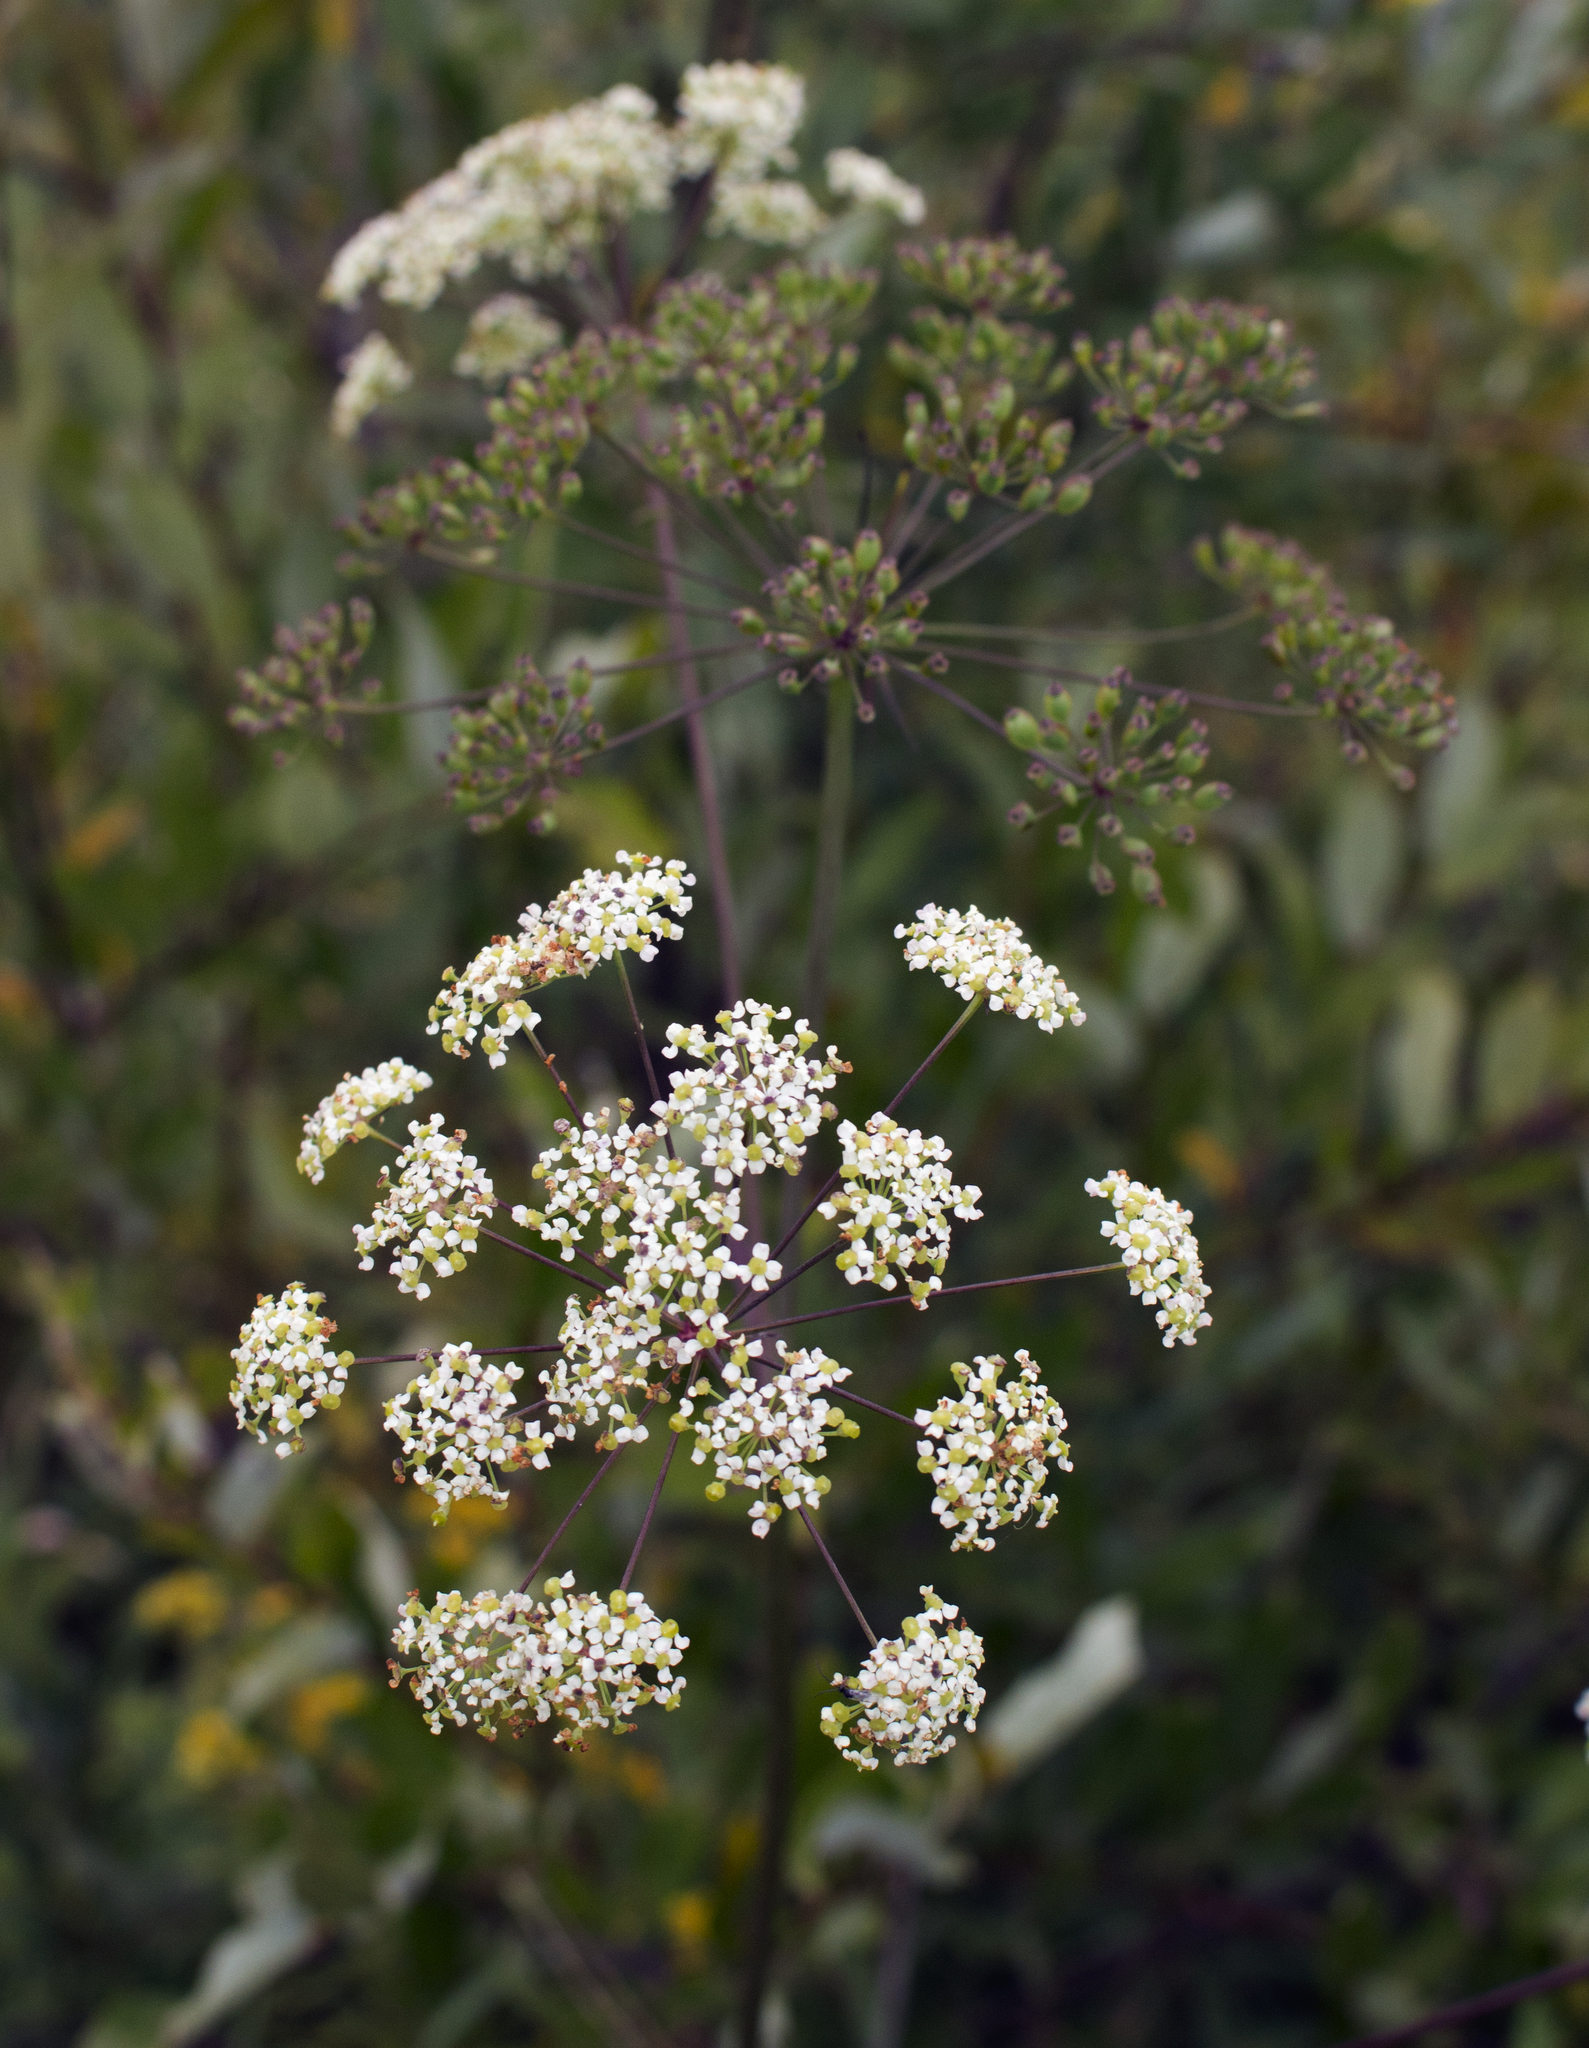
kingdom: Plantae
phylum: Tracheophyta
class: Magnoliopsida
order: Apiales
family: Apiaceae
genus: Sium
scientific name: Sium suave
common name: Hemlock water-parsnip
